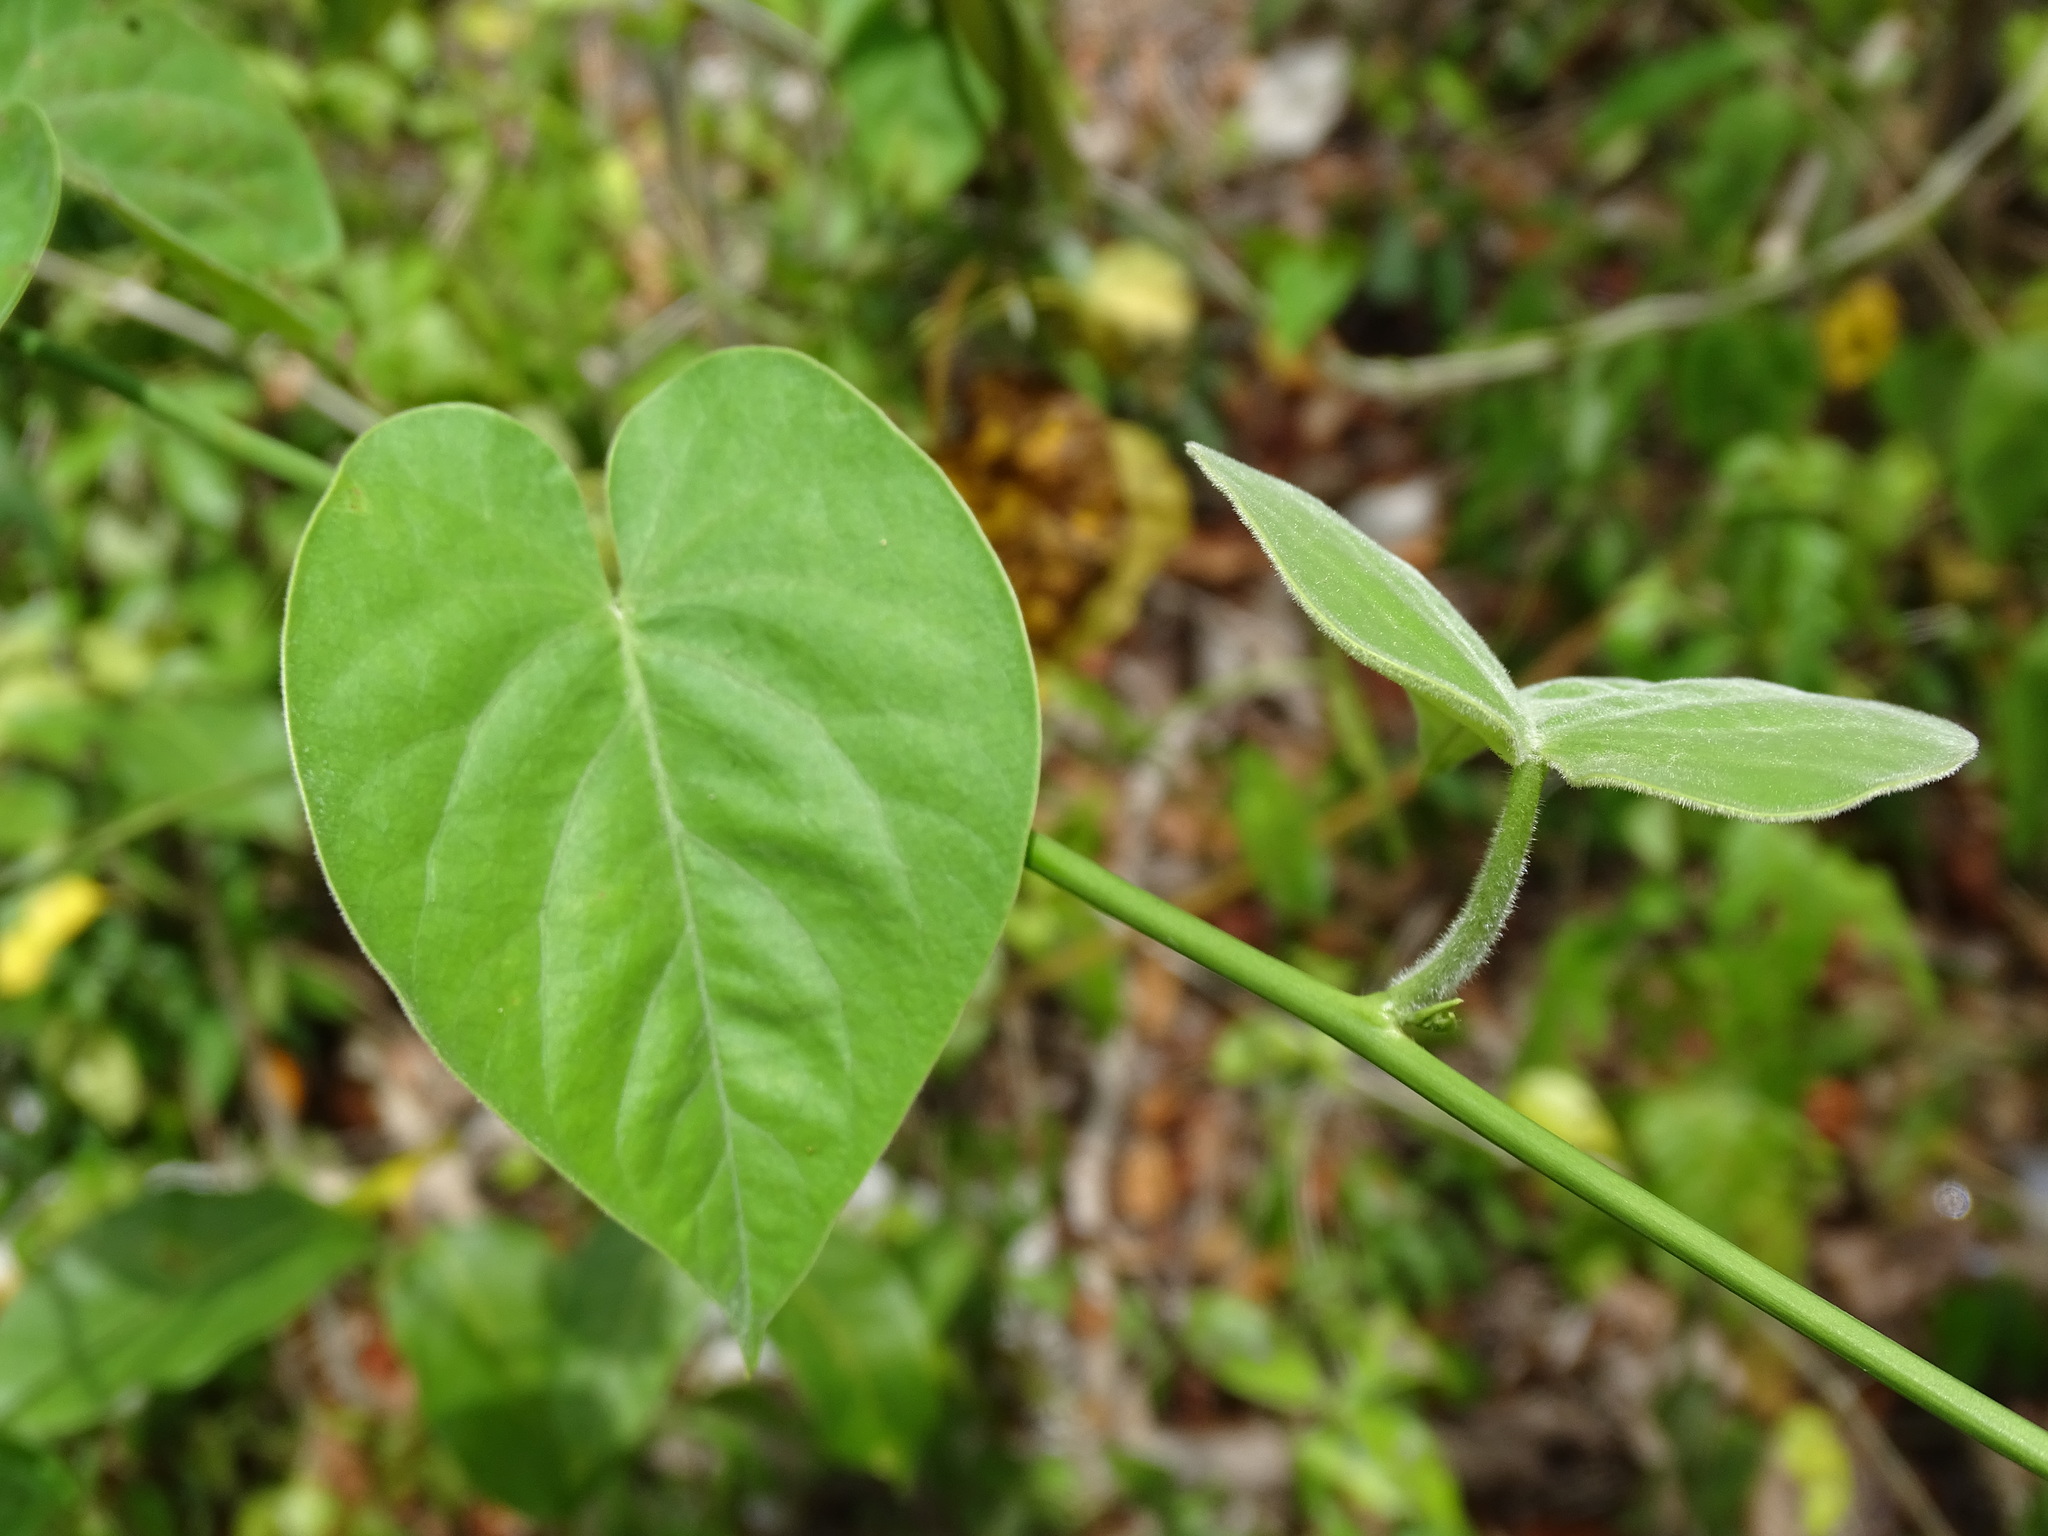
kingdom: Plantae
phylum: Tracheophyta
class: Magnoliopsida
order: Solanales
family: Convolvulaceae
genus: Ipomoea
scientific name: Ipomoea corymbosa
